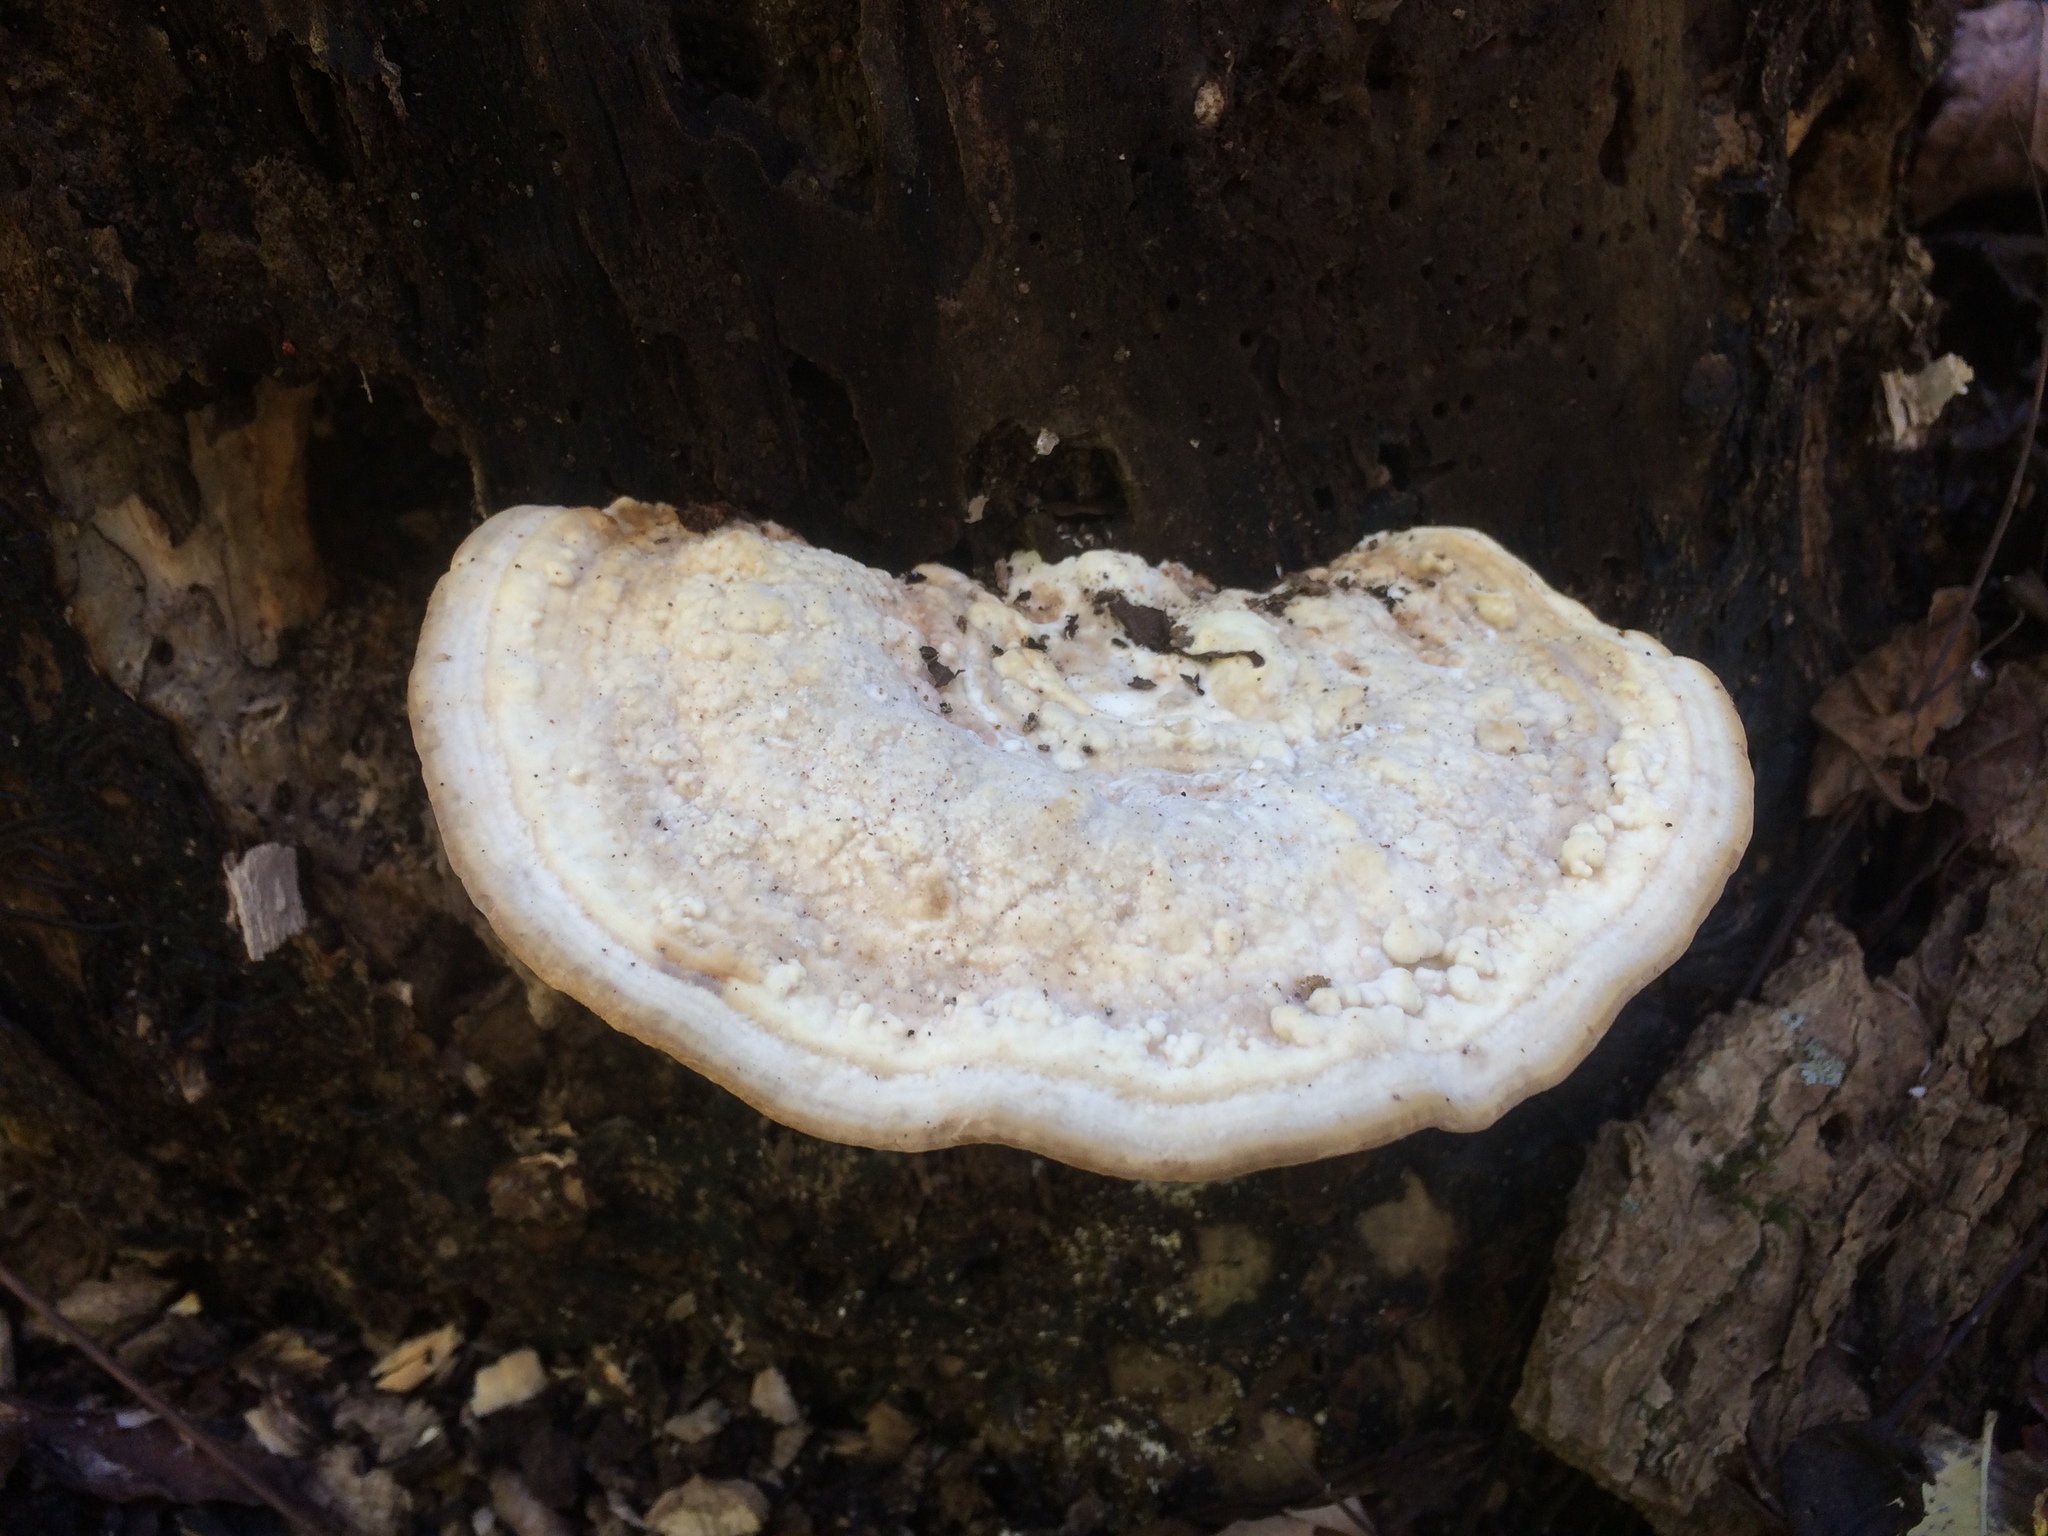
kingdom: Fungi
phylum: Basidiomycota
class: Agaricomycetes
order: Polyporales
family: Polyporaceae
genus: Trametes
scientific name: Trametes gibbosa
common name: Lumpy bracket
